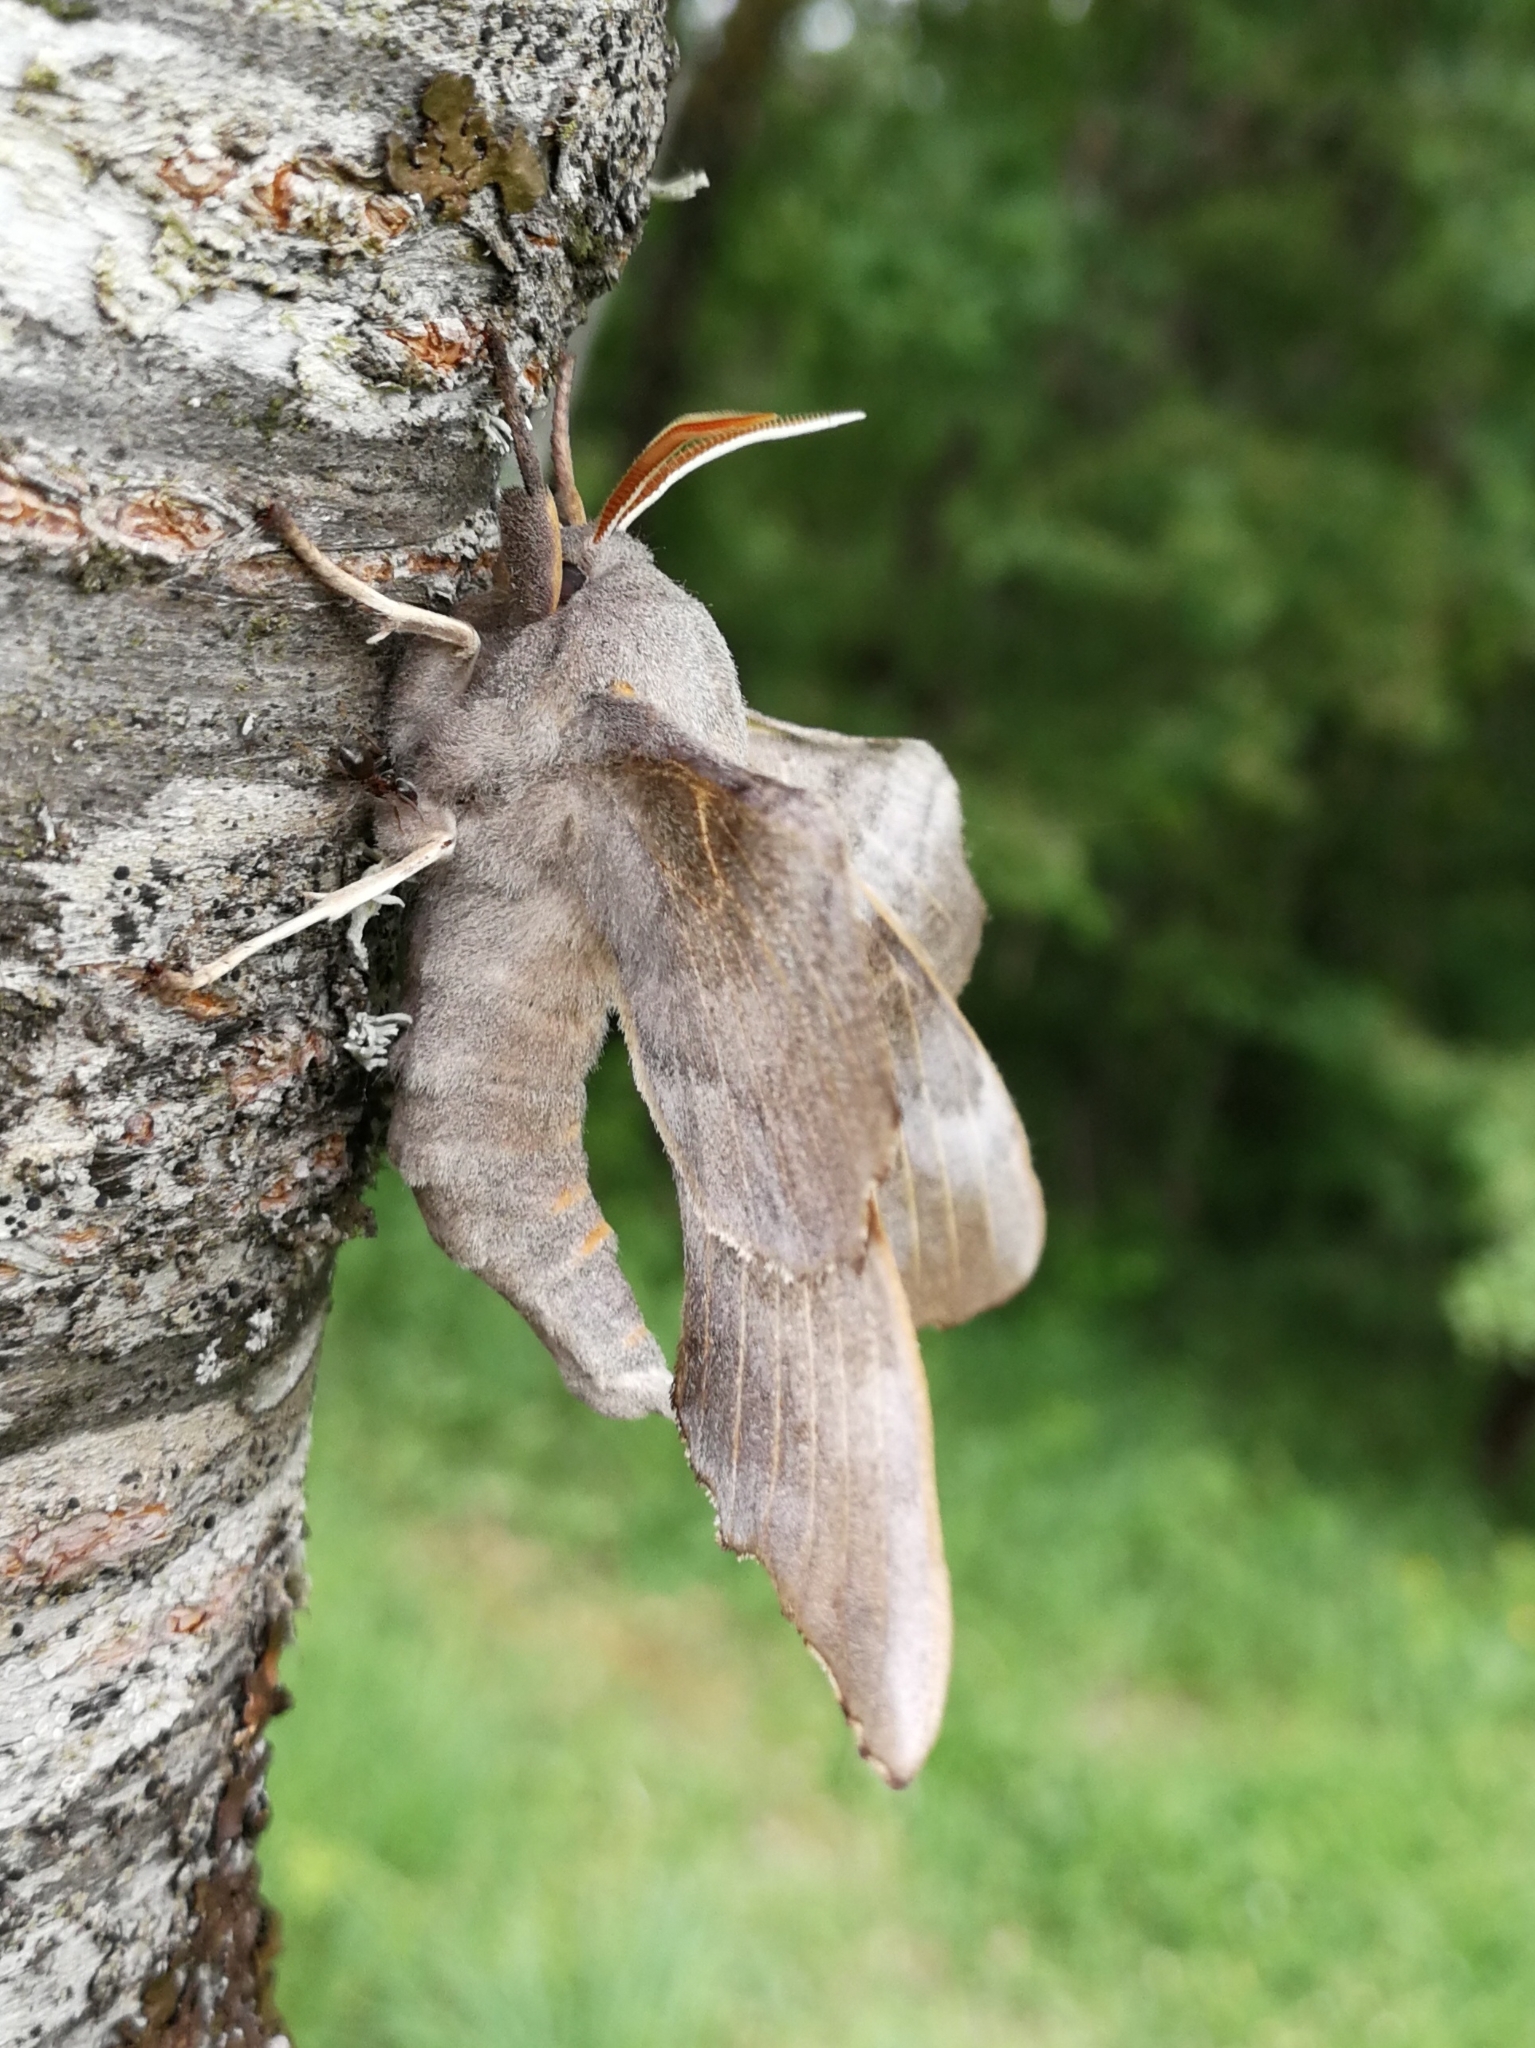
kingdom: Animalia
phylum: Arthropoda
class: Insecta
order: Lepidoptera
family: Sphingidae
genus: Laothoe
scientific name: Laothoe populi
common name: Poplar hawk-moth
